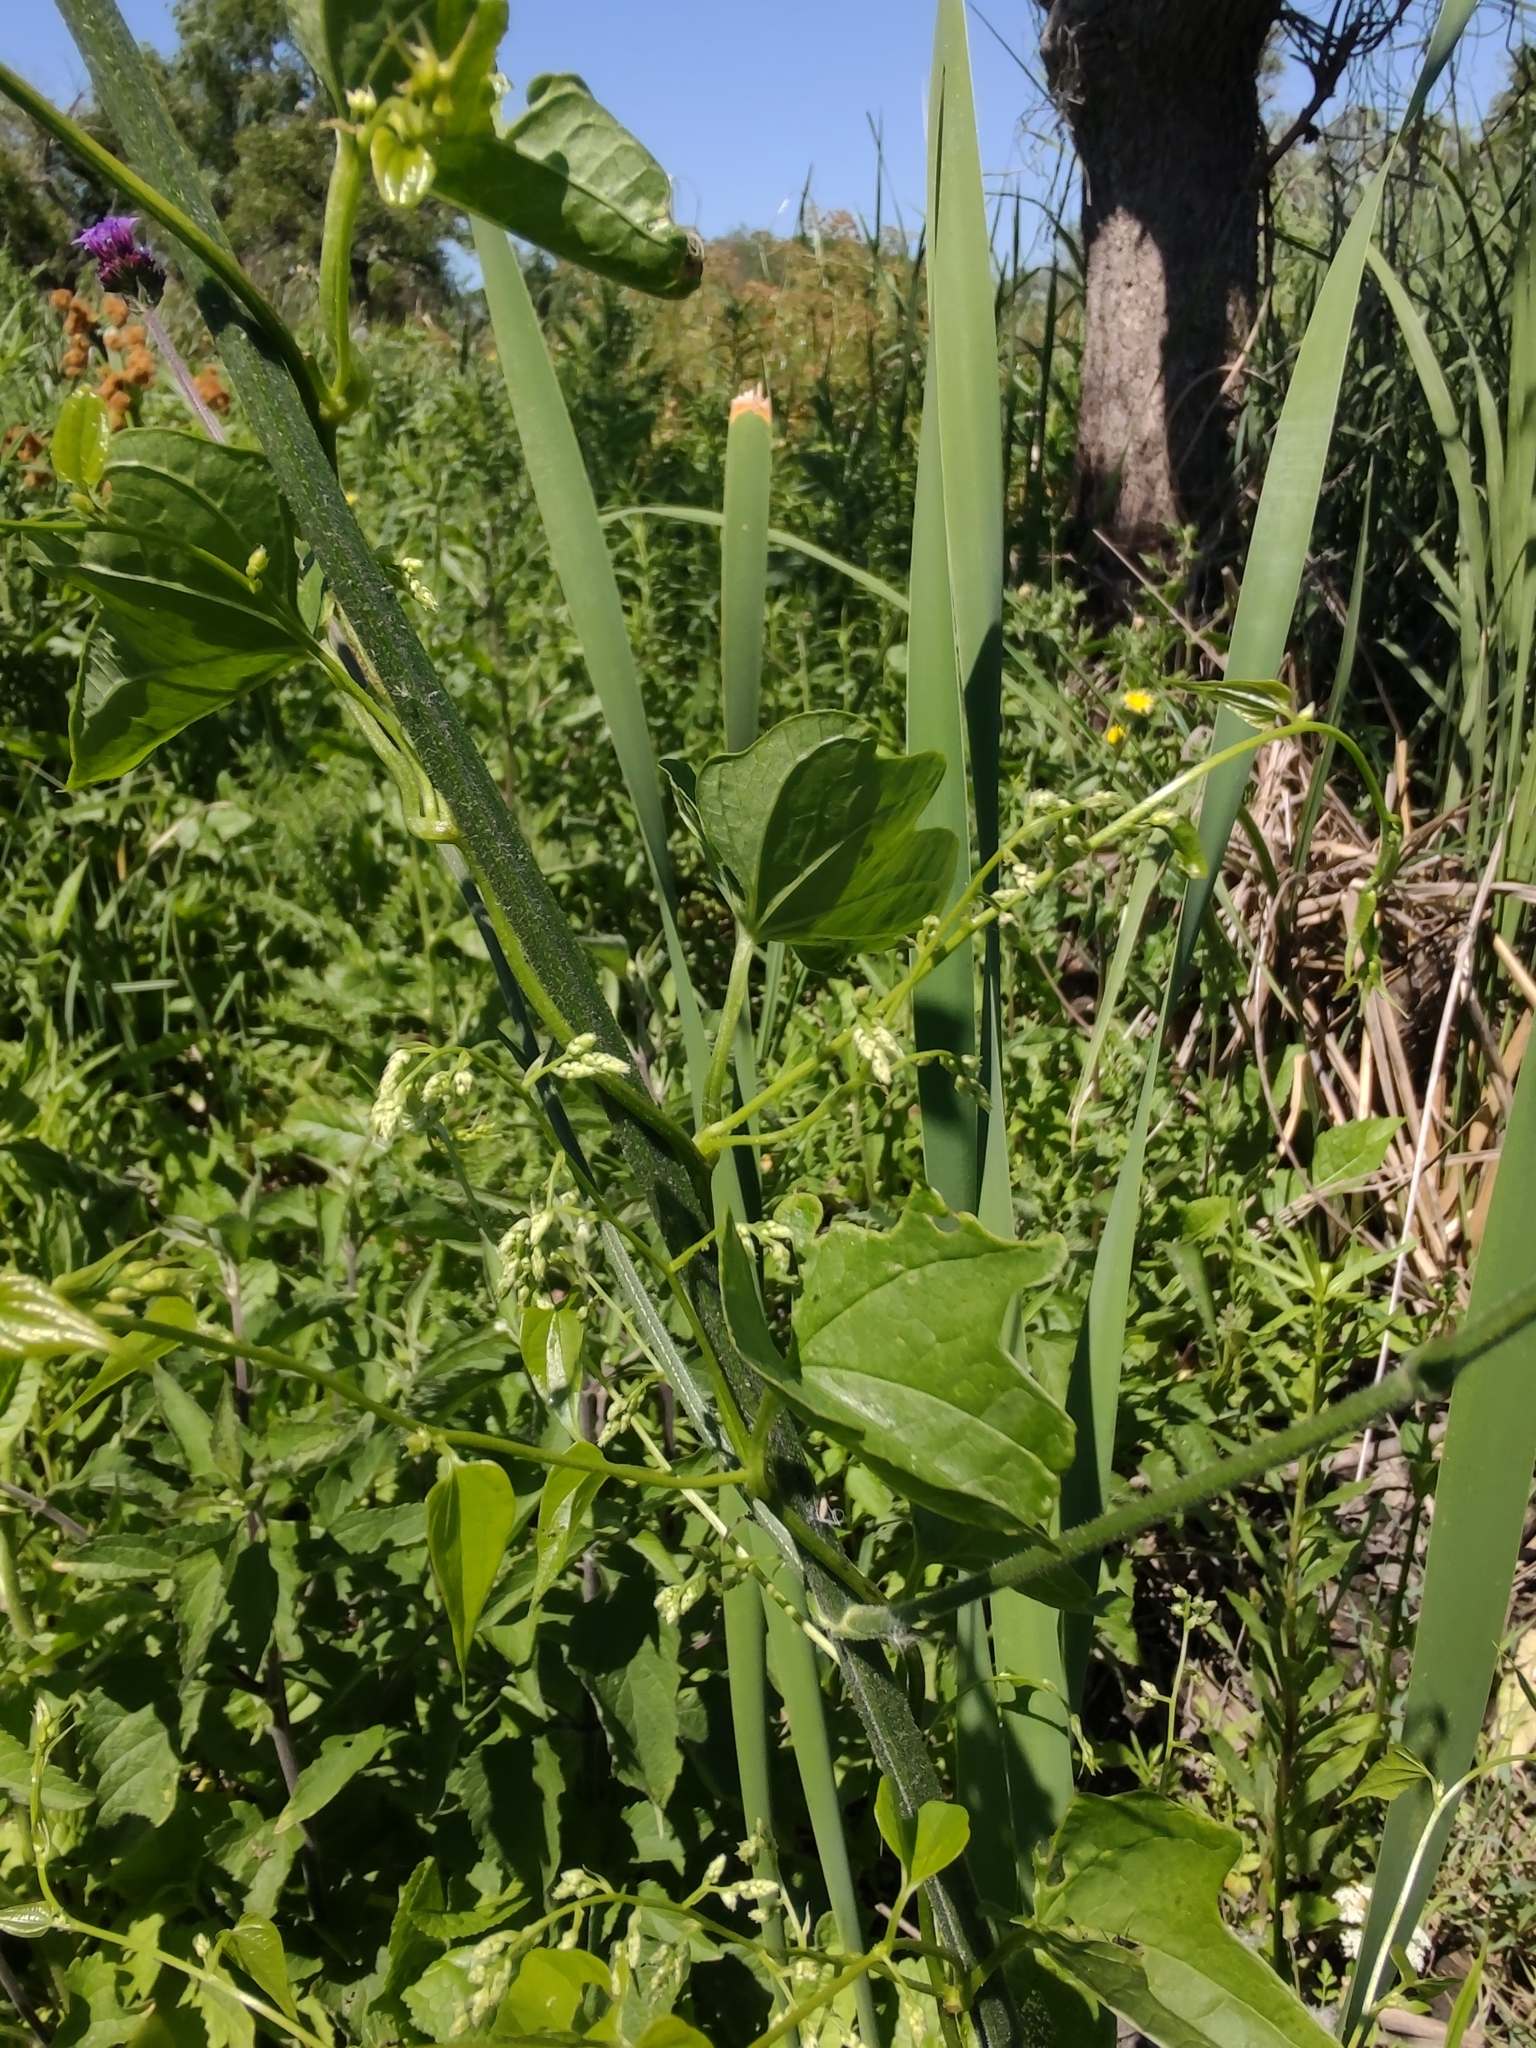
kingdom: Plantae
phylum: Tracheophyta
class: Liliopsida
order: Dioscoreales
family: Dioscoreaceae
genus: Dioscorea
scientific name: Dioscorea sinuata
